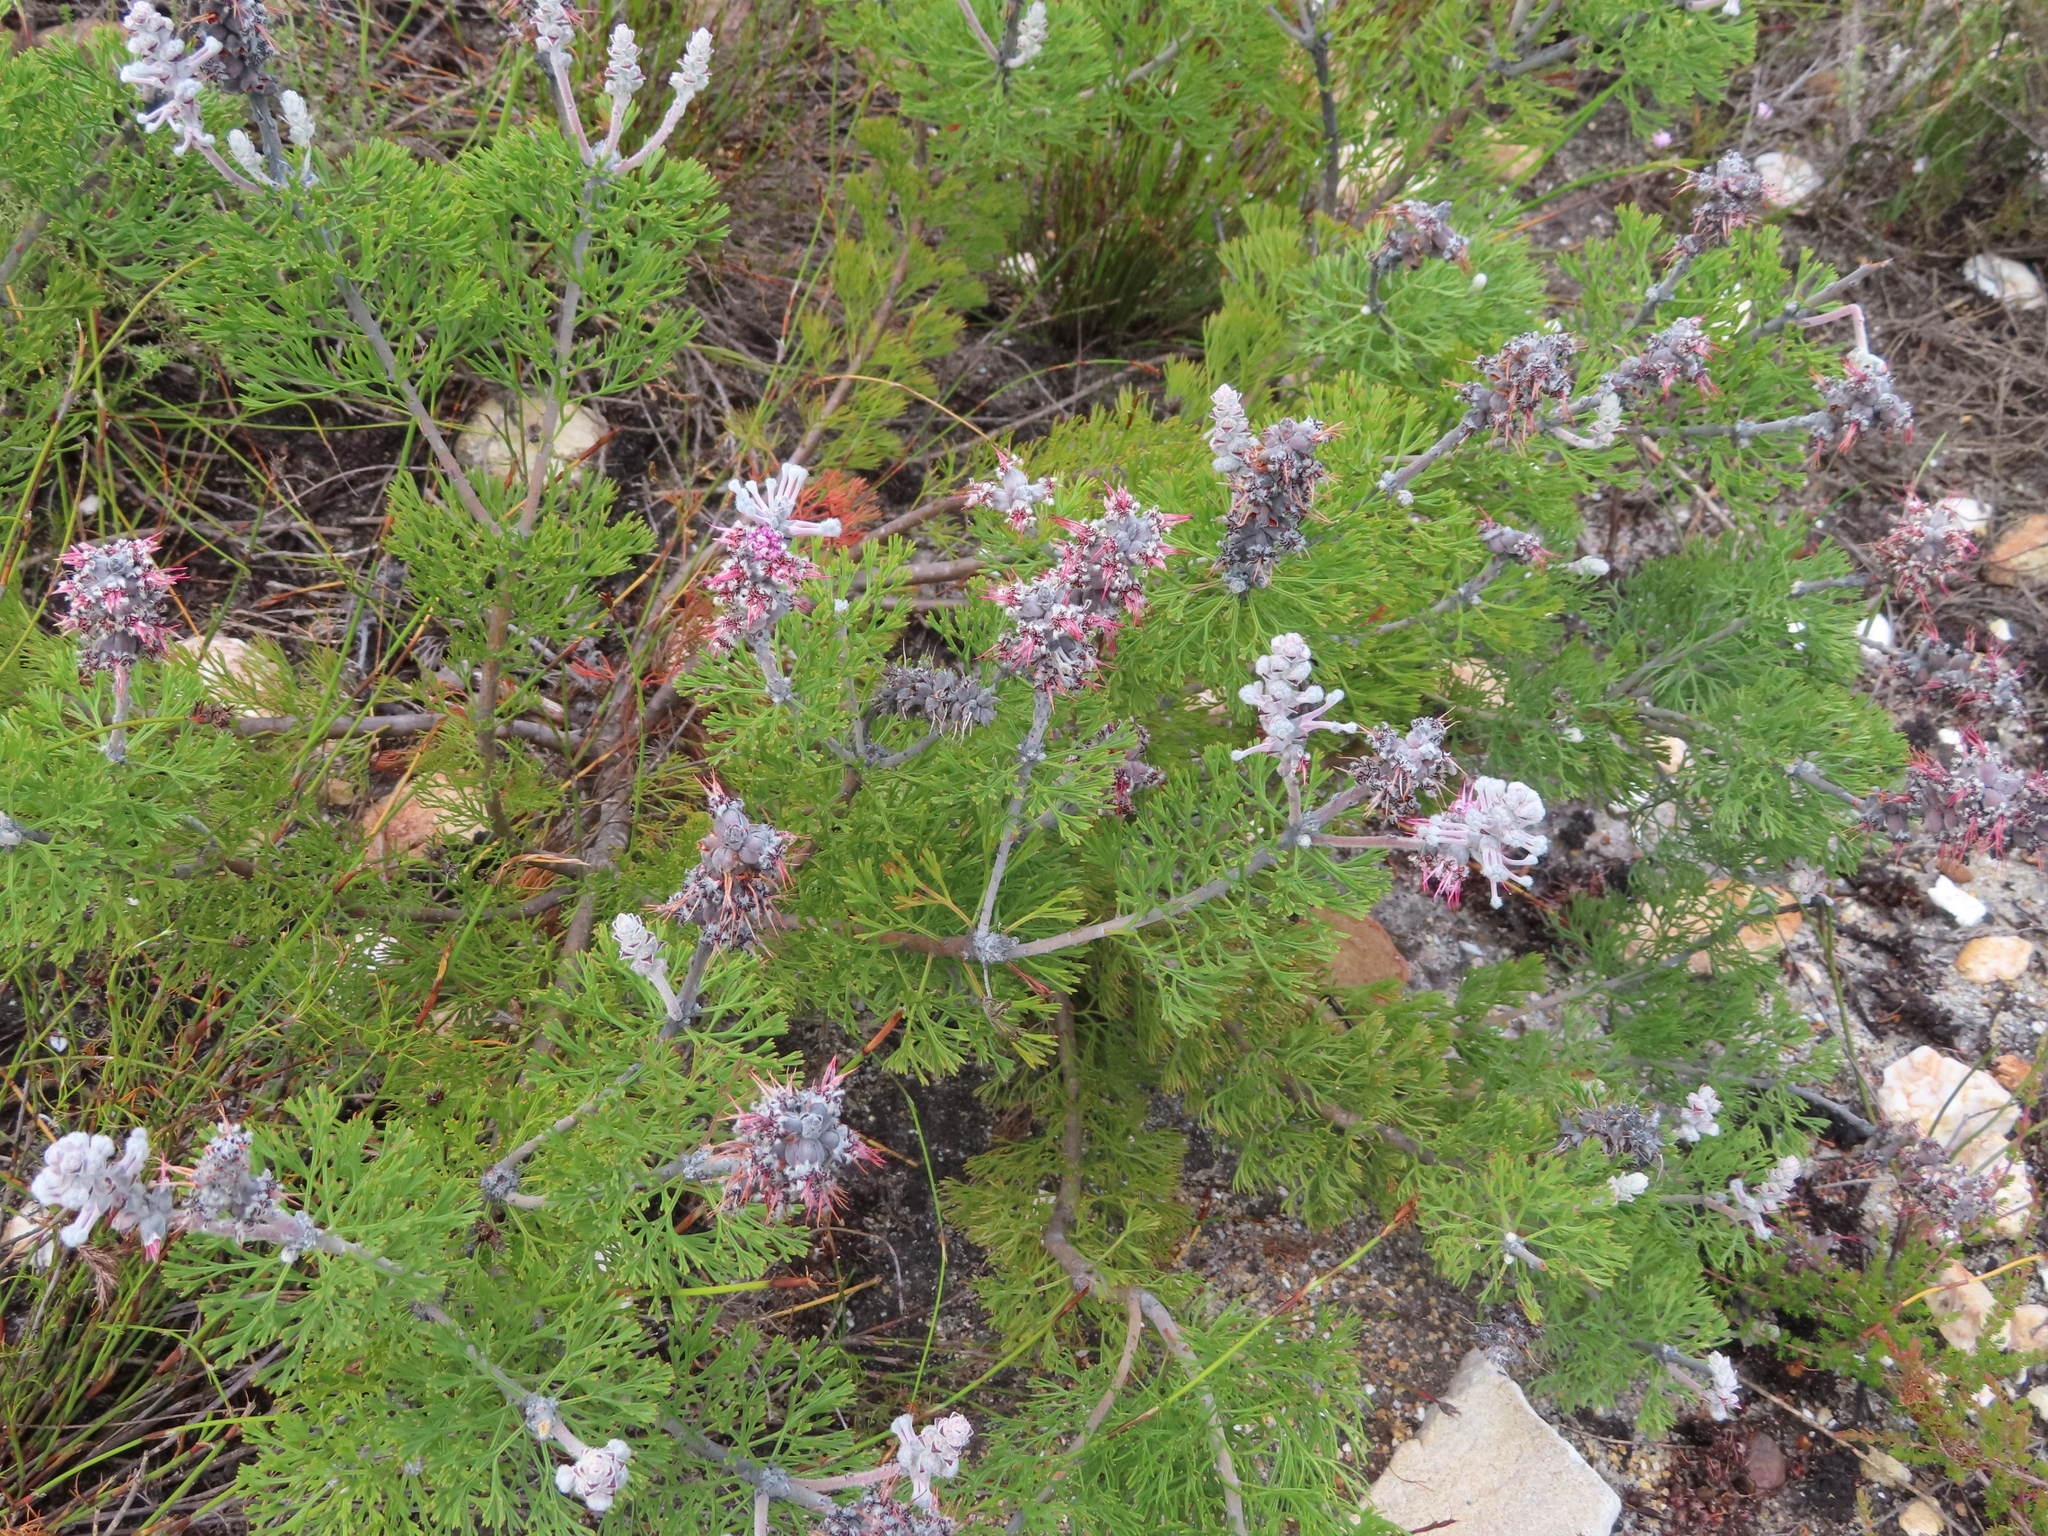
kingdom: Plantae
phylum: Tracheophyta
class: Magnoliopsida
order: Proteales
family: Proteaceae
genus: Paranomus
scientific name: Paranomus bolusii
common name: Overberg sceptre
